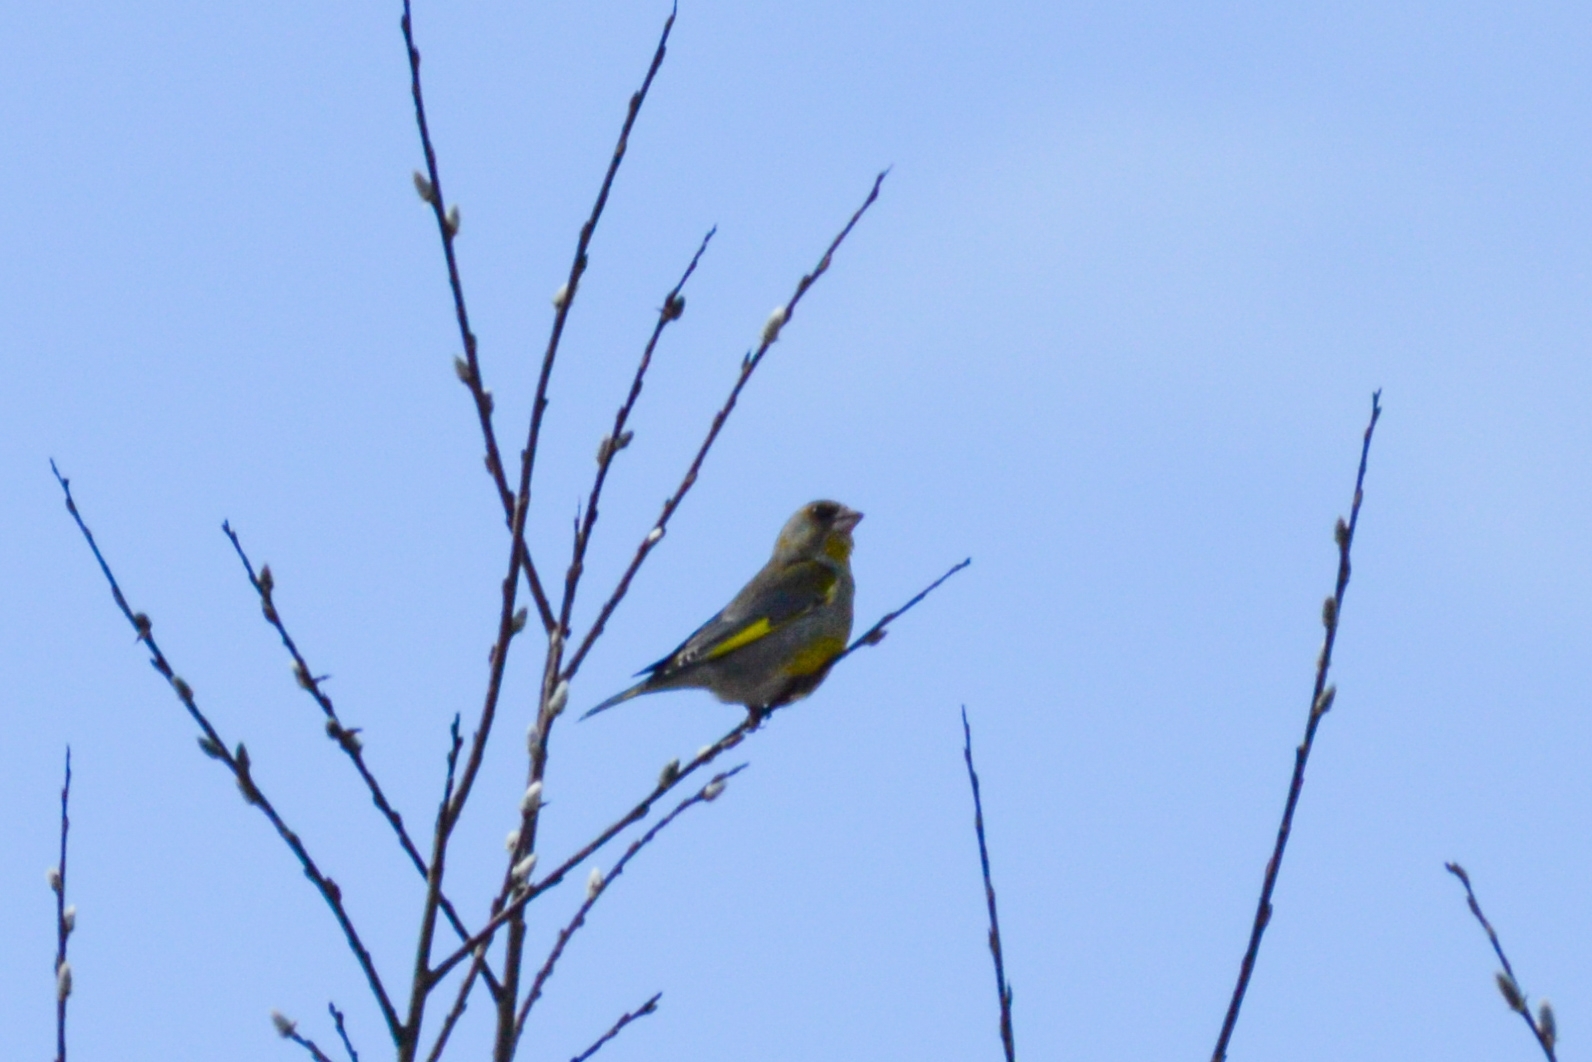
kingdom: Plantae
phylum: Tracheophyta
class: Liliopsida
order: Poales
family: Poaceae
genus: Chloris
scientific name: Chloris chloris
